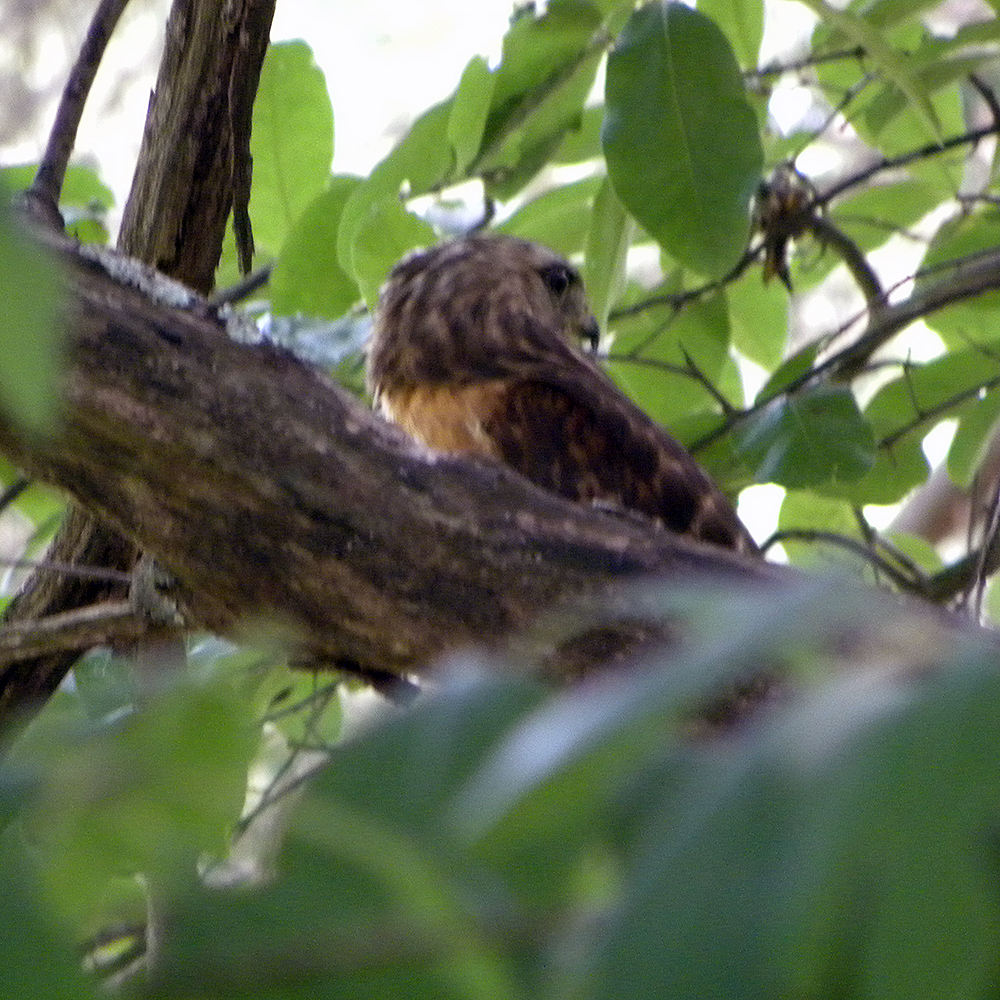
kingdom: Animalia
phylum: Chordata
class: Aves
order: Accipitriformes
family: Accipitridae
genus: Buteo
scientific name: Buteo lineatus
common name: Red-shouldered hawk
